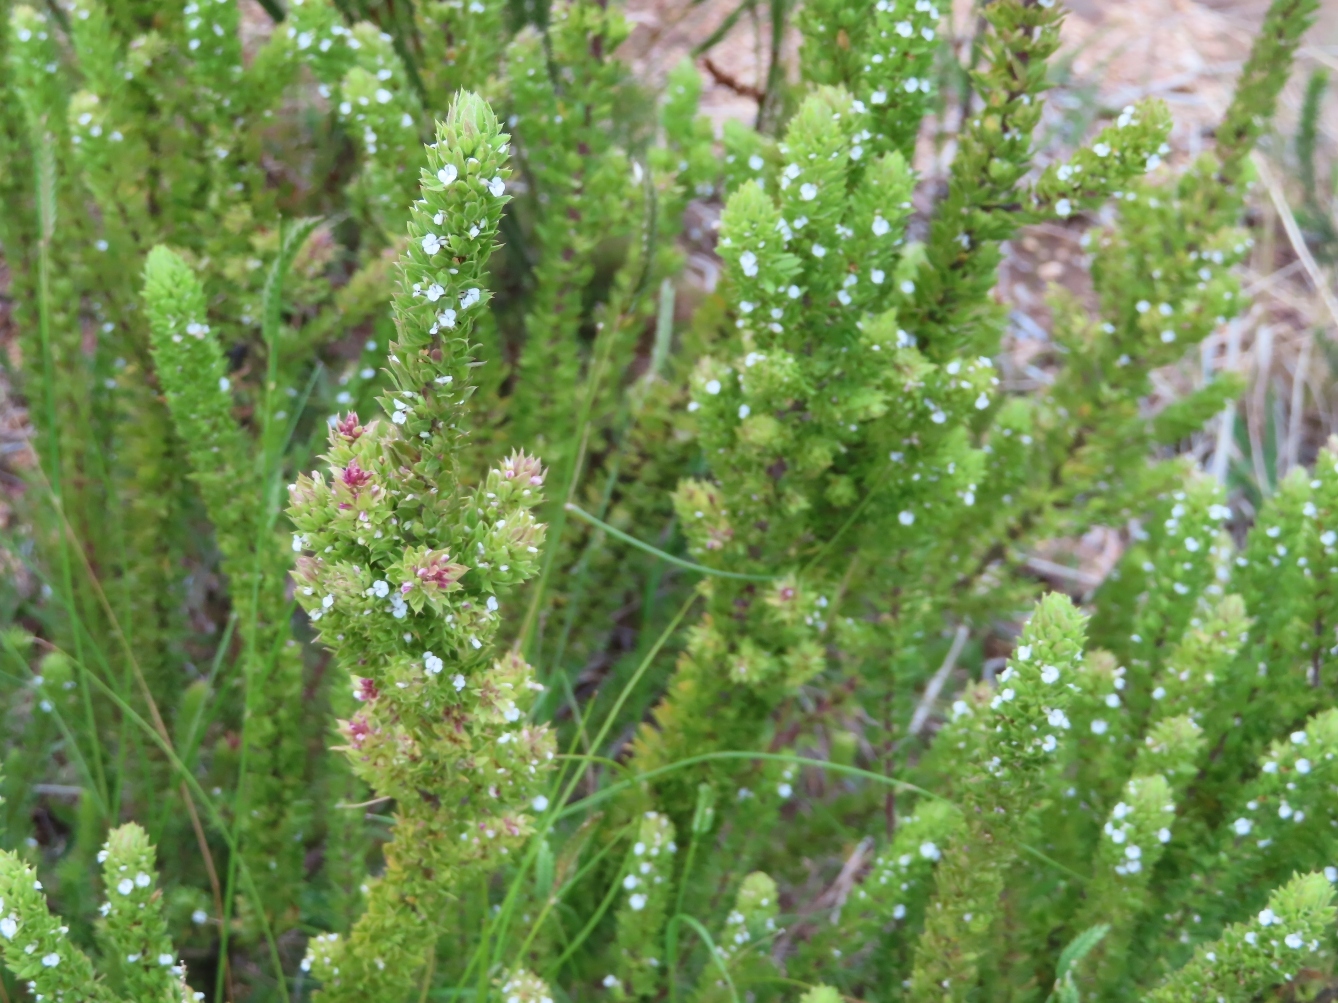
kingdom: Plantae
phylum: Tracheophyta
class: Magnoliopsida
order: Fabales
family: Polygalaceae
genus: Muraltia
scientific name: Muraltia alba
